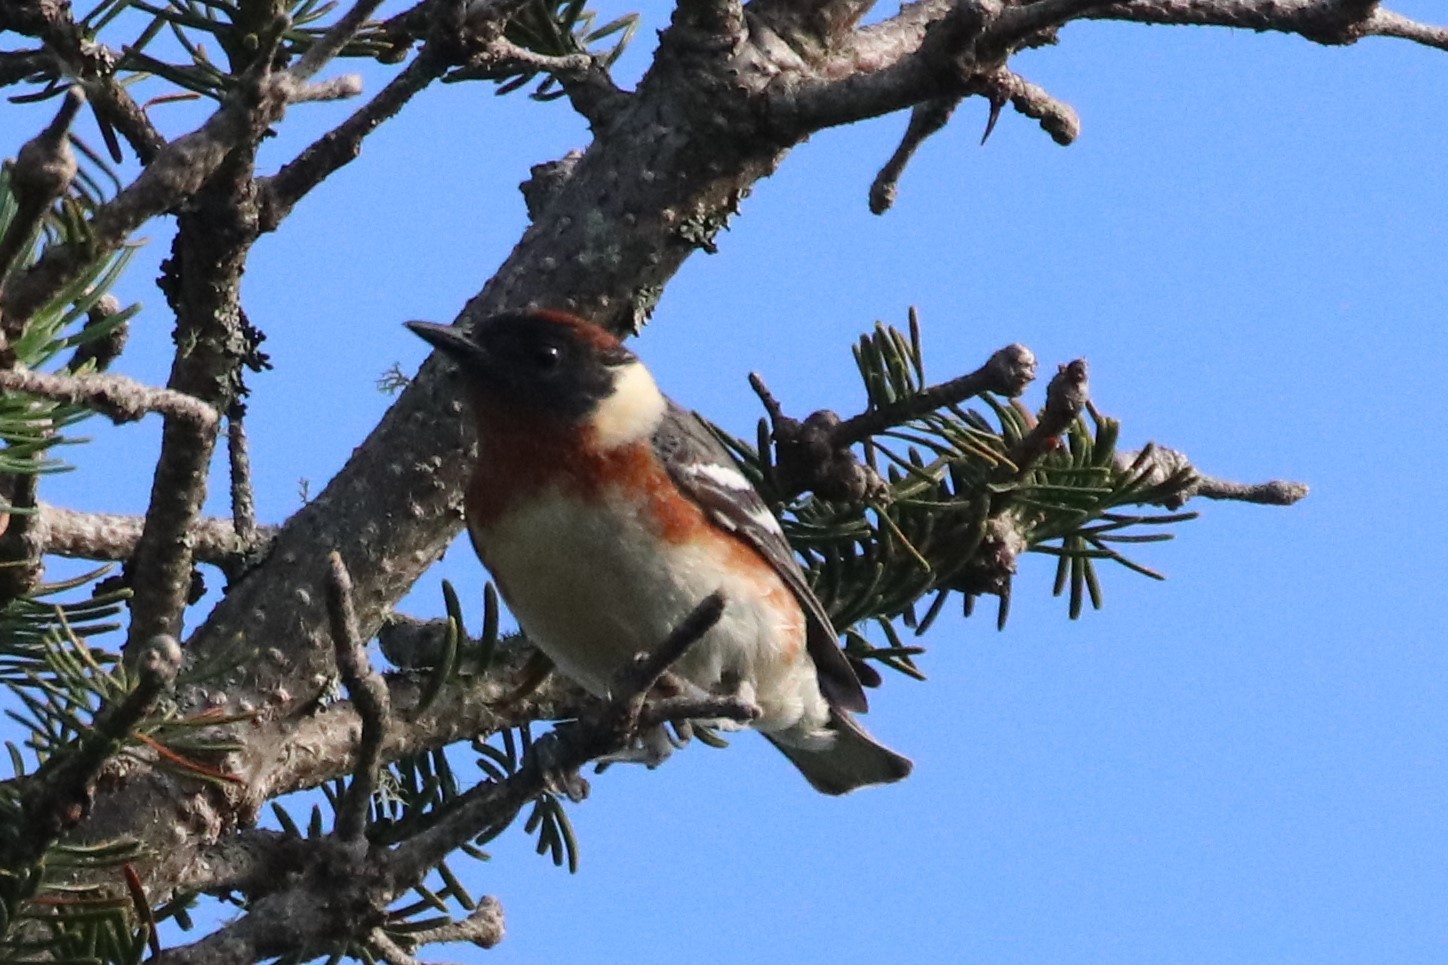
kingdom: Animalia
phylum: Chordata
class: Aves
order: Passeriformes
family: Parulidae
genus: Setophaga
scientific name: Setophaga castanea
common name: Bay-breasted warbler
